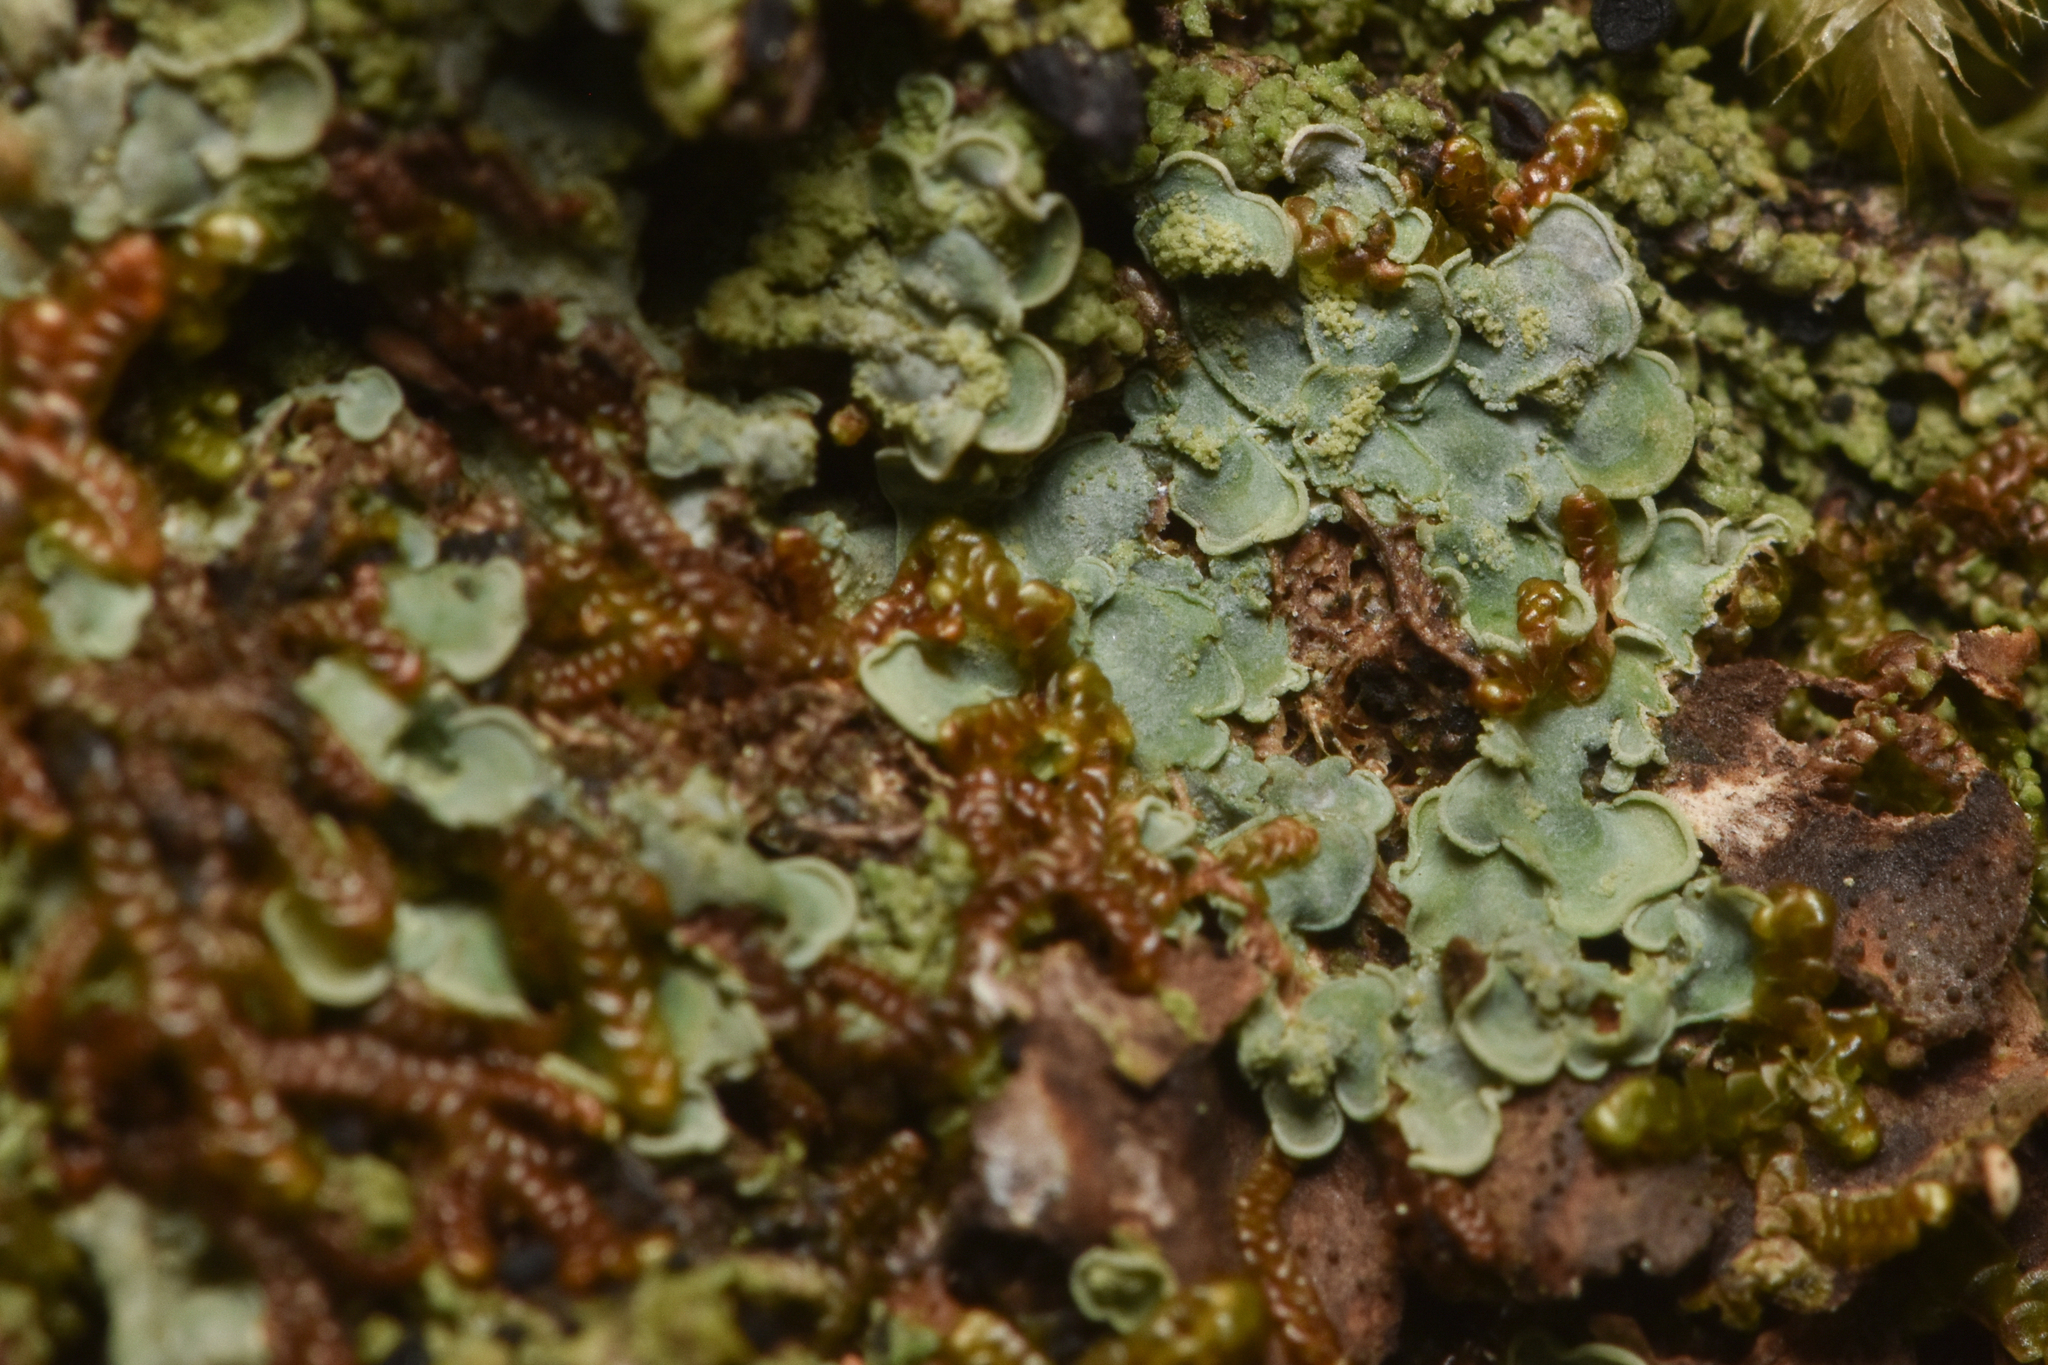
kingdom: Fungi
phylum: Ascomycota
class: Eurotiomycetes
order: Verrucariales
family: Verrucariaceae
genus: Normandina
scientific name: Normandina pulchella
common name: Elf ears lichen
